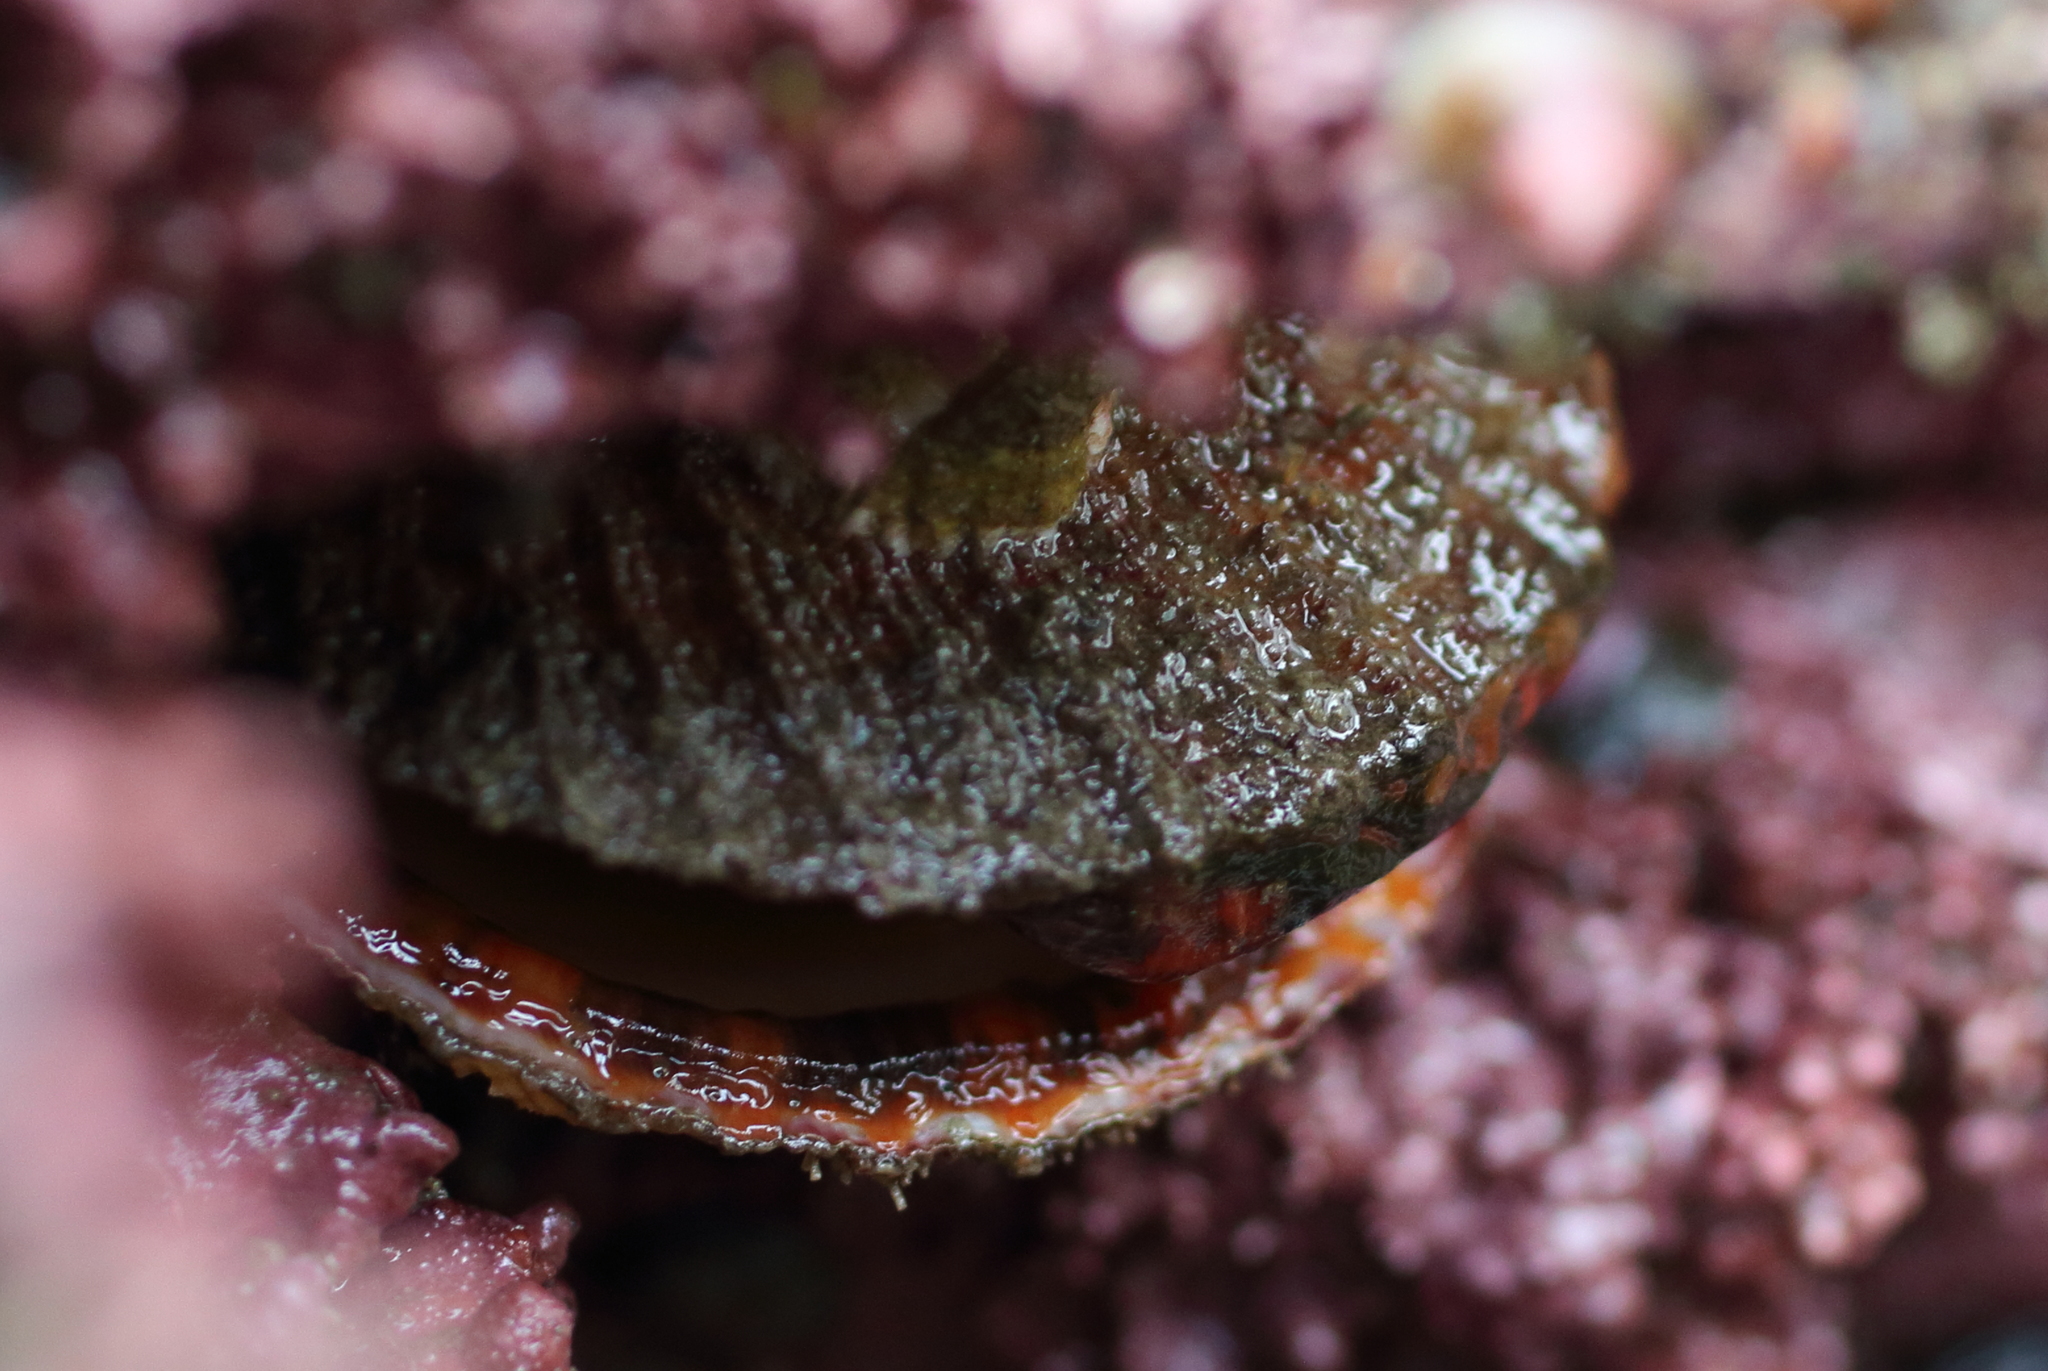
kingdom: Animalia
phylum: Mollusca
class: Bivalvia
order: Pectinida
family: Pectinidae
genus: Chlamys
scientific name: Chlamys hastata
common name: Spear scallop
